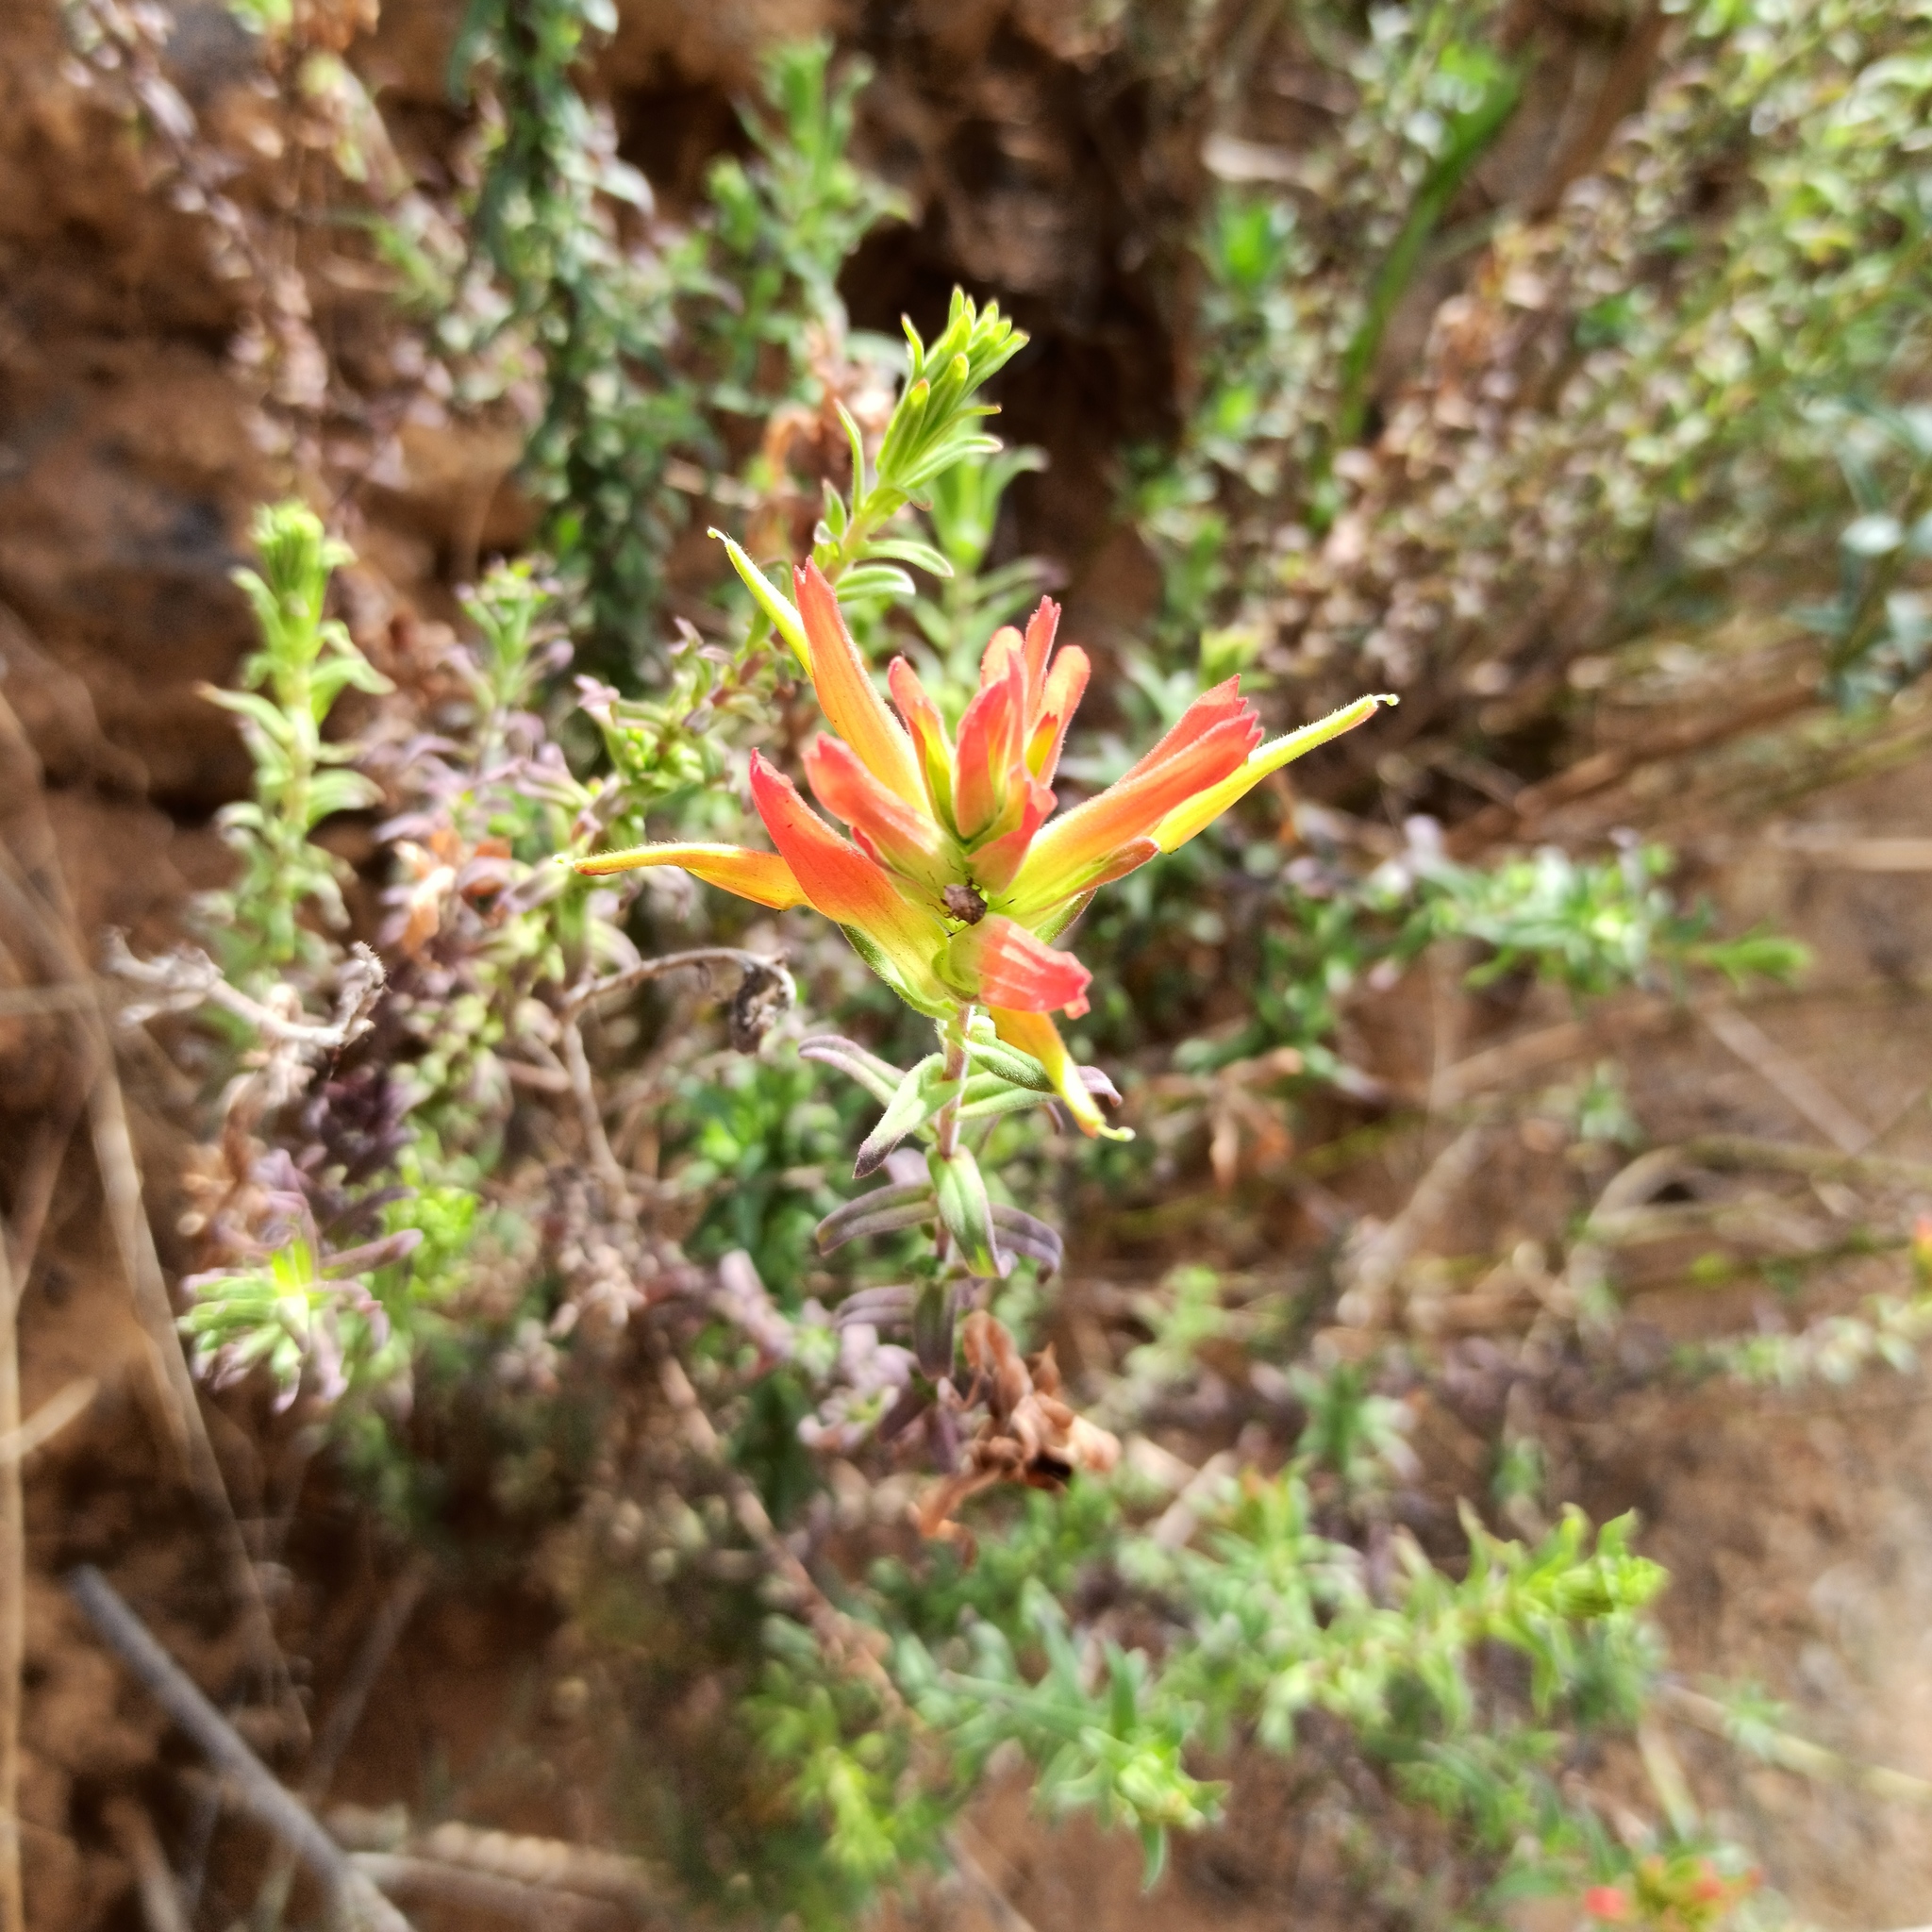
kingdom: Plantae
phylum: Tracheophyta
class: Magnoliopsida
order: Lamiales
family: Orobanchaceae
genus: Castilleja
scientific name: Castilleja tenuiflora
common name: Santa catalina indian paintbrush
